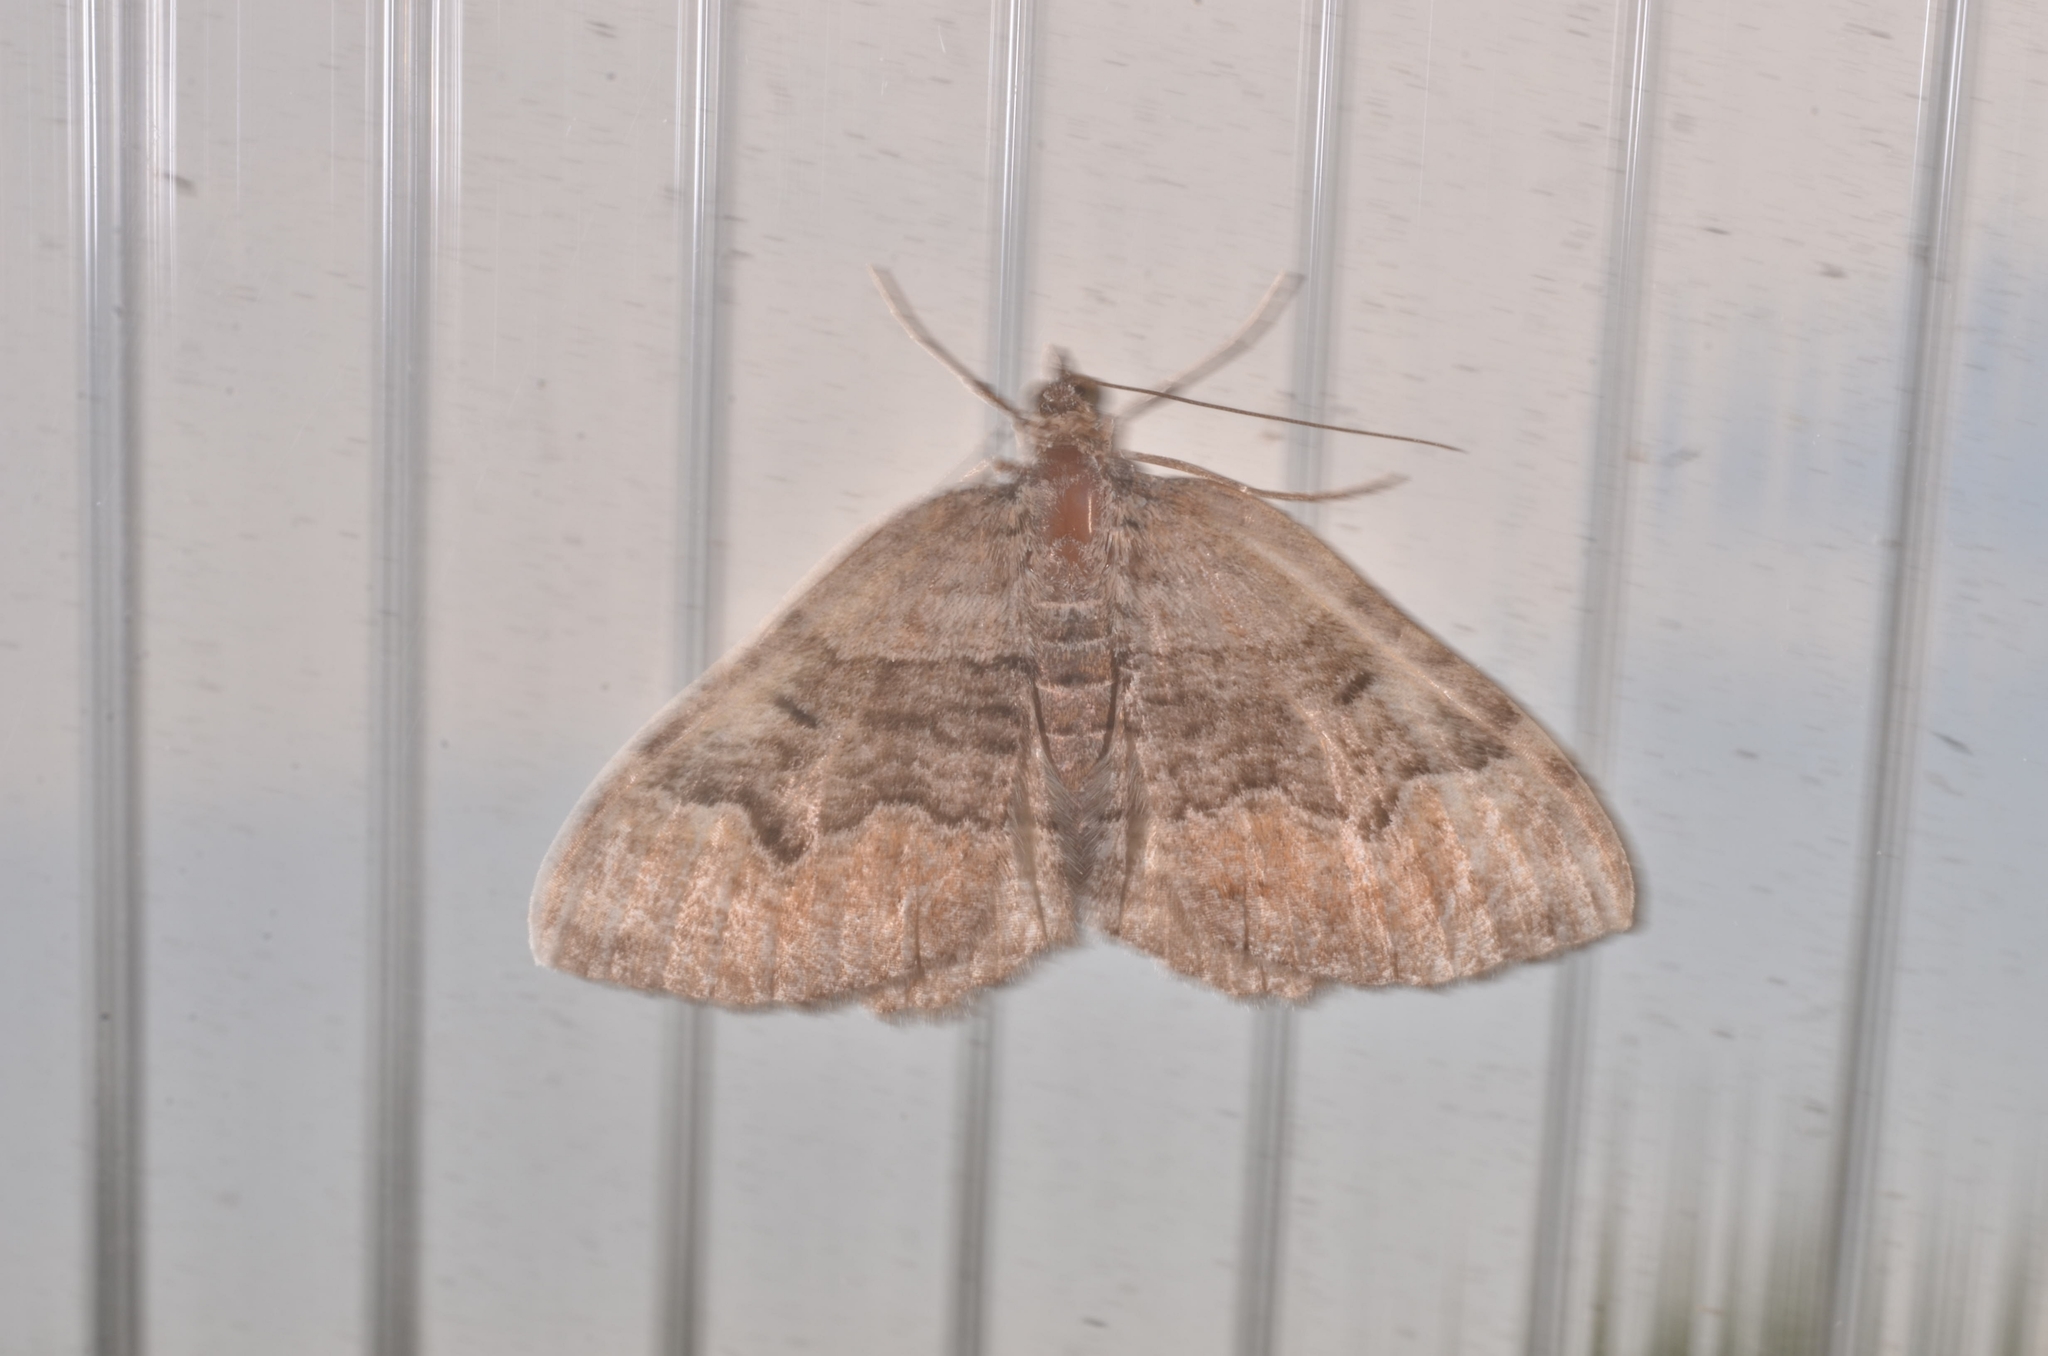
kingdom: Animalia
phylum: Arthropoda
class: Insecta
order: Lepidoptera
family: Geometridae
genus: Xanthorhoe
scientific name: Xanthorhoe quadrifasiata
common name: Large twin-spot carpet
